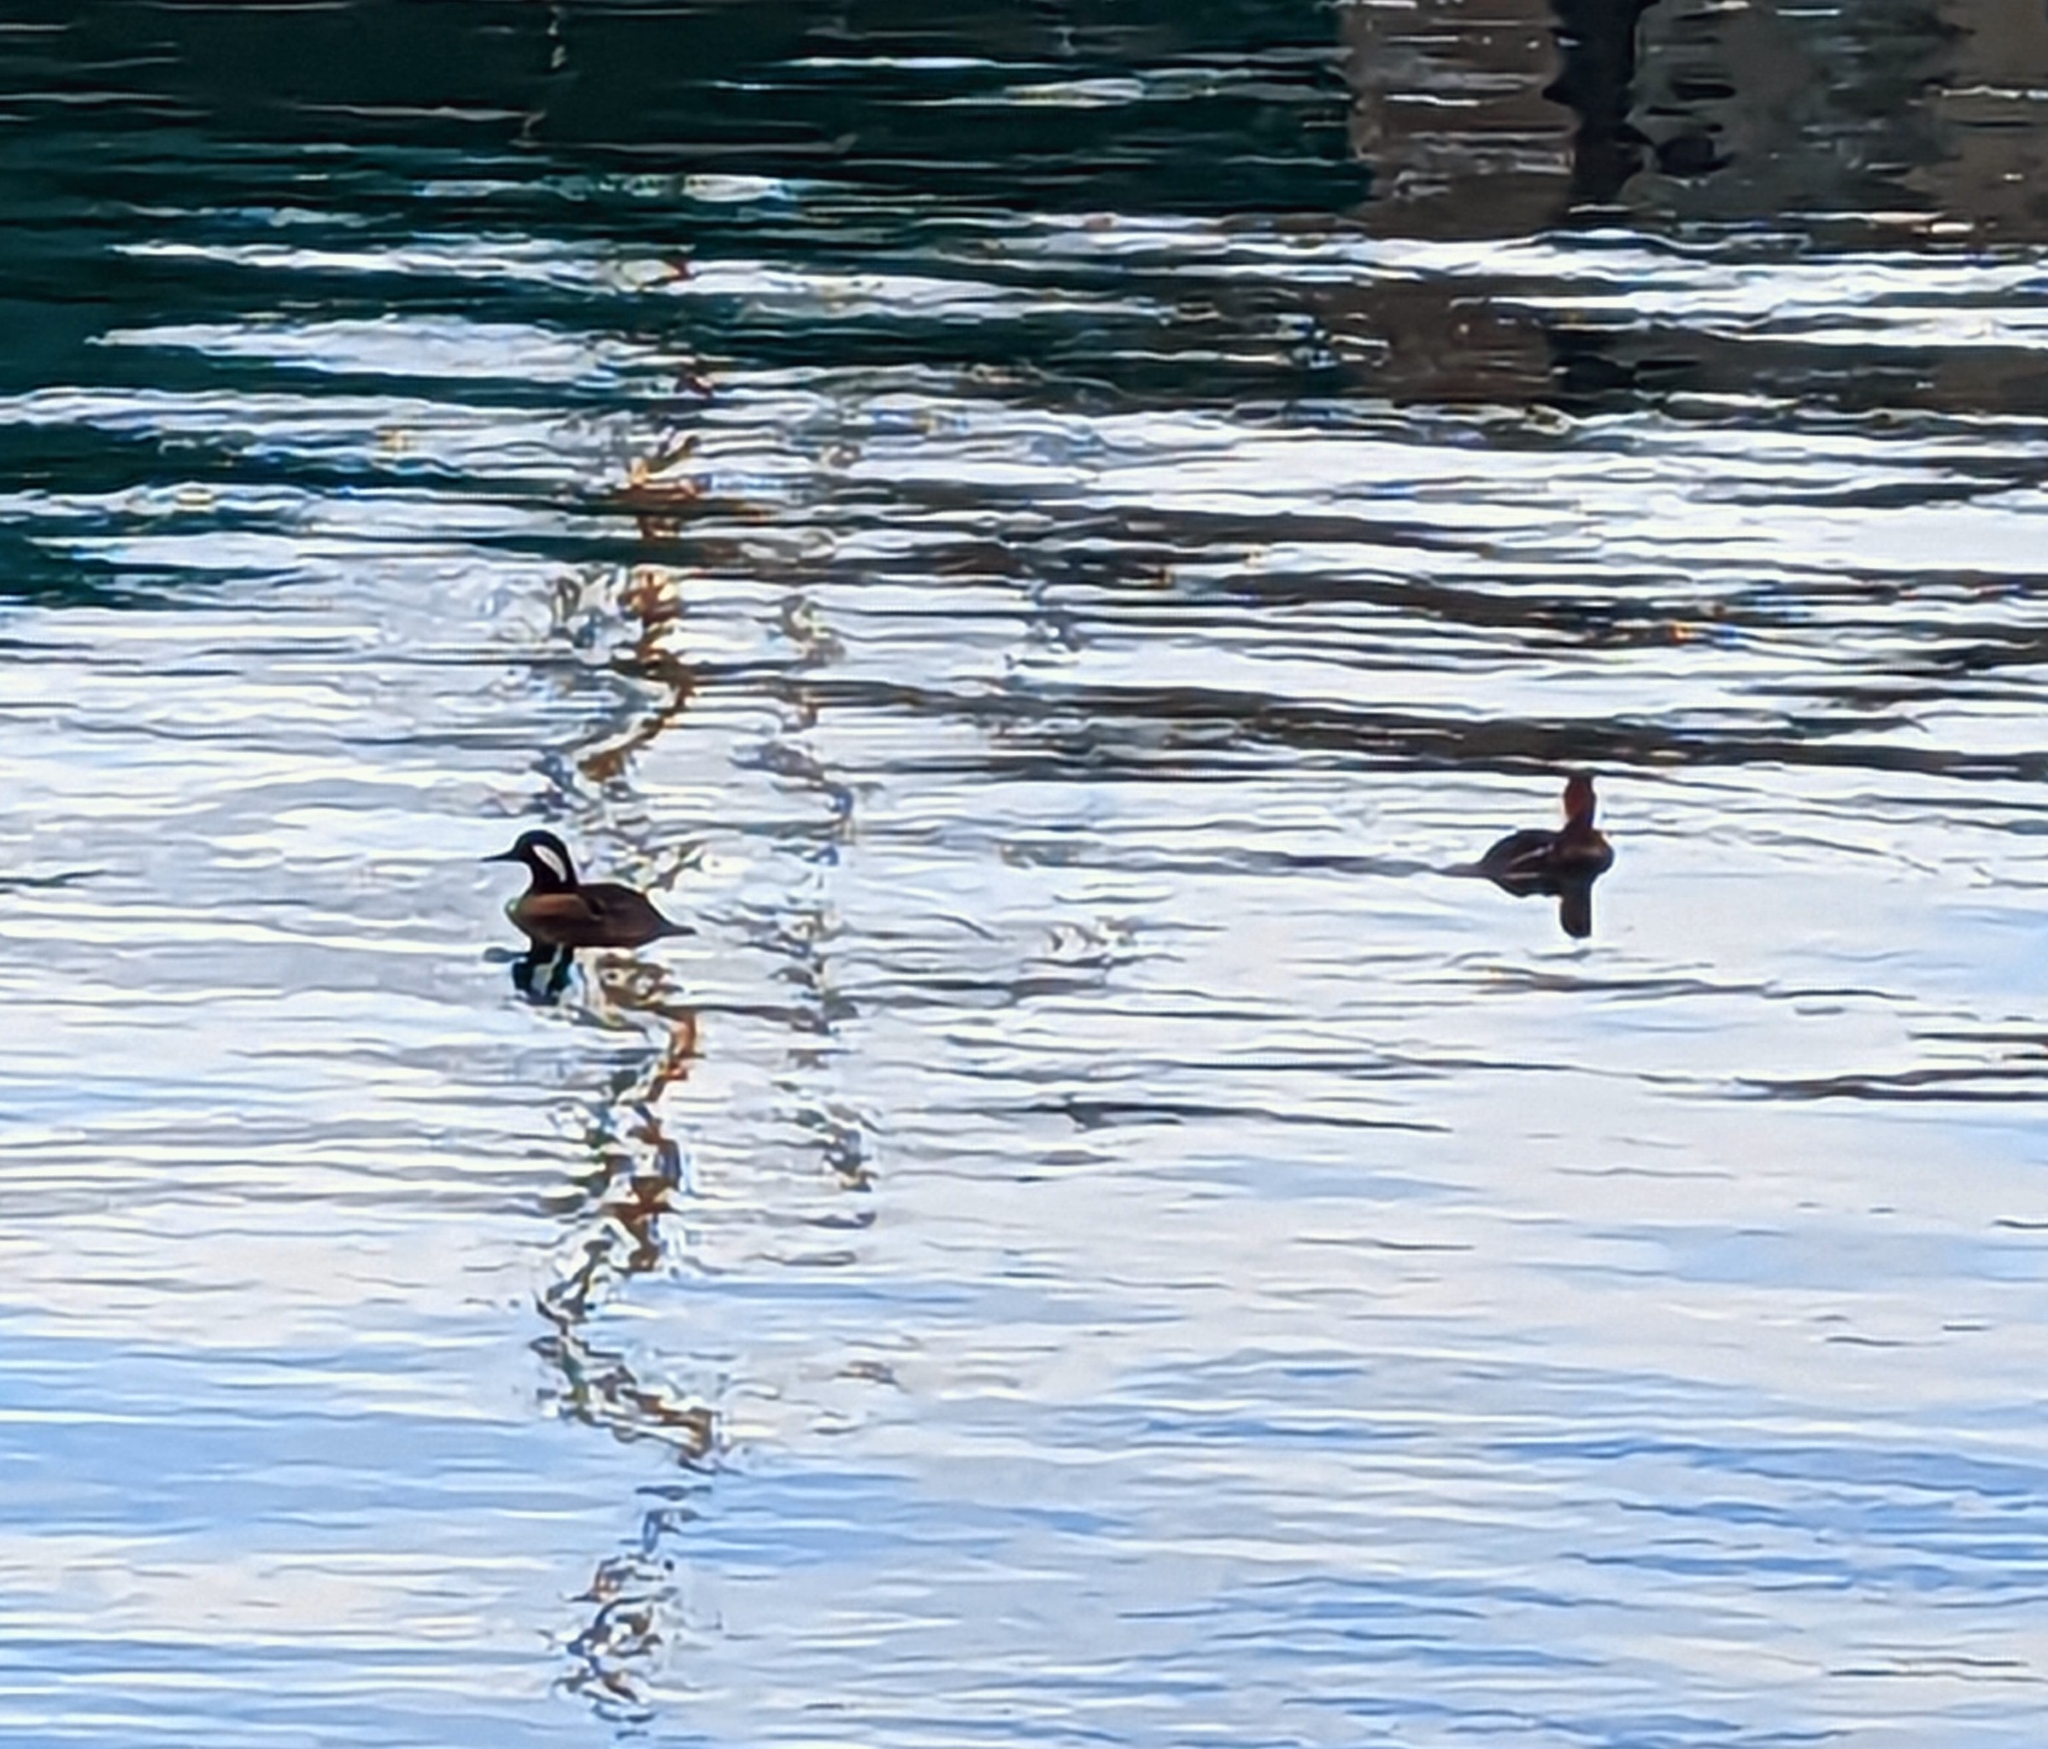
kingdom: Animalia
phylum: Chordata
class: Aves
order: Anseriformes
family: Anatidae
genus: Lophodytes
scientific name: Lophodytes cucullatus
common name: Hooded merganser
